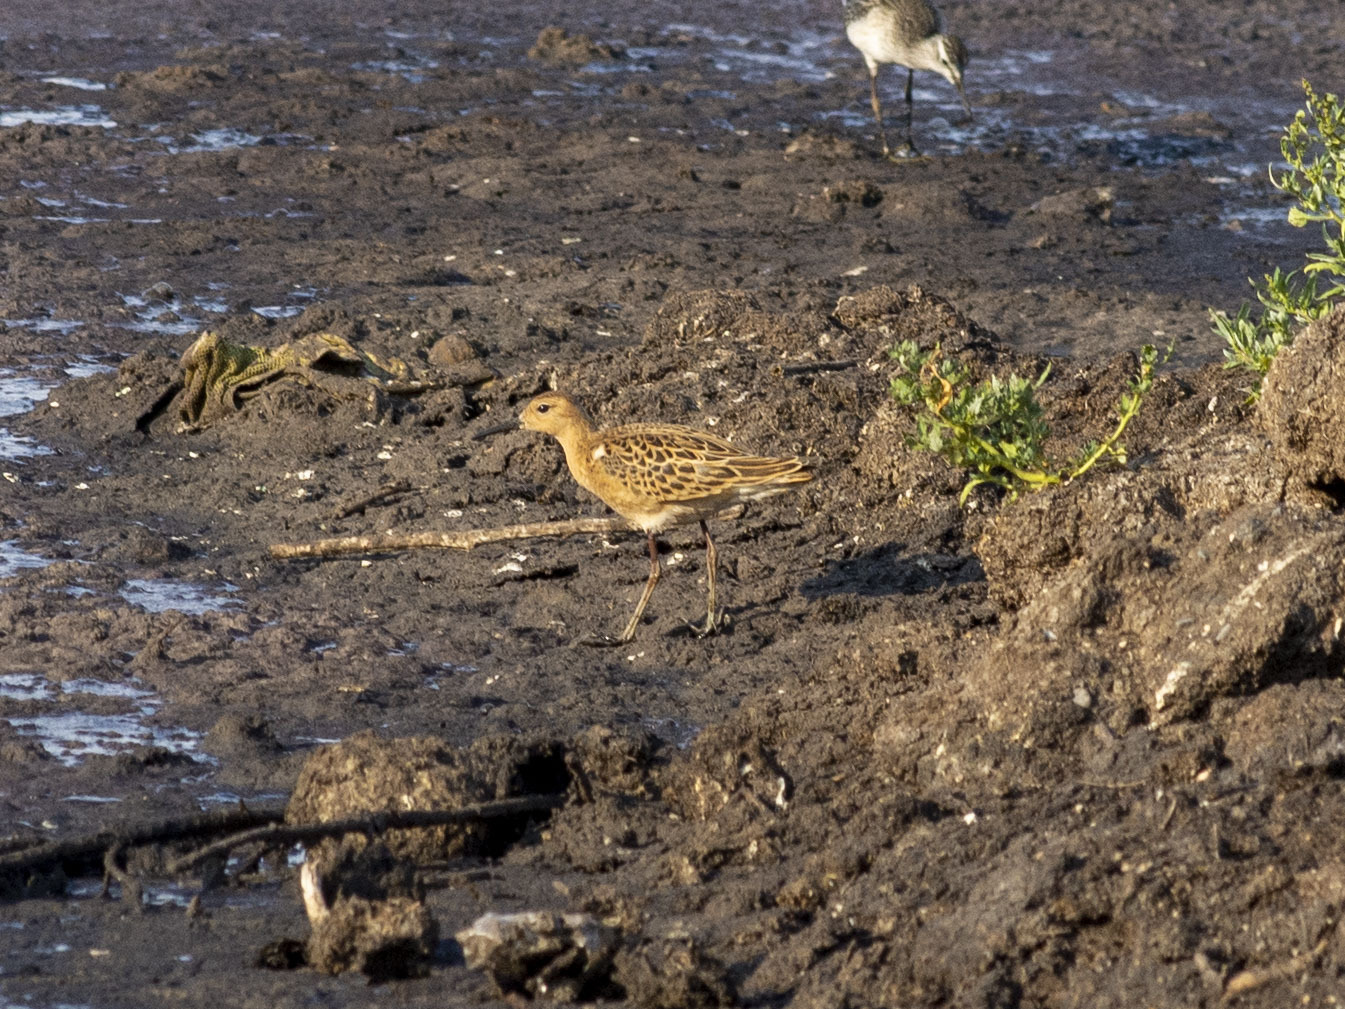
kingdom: Animalia
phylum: Chordata
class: Aves
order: Charadriiformes
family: Scolopacidae
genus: Calidris
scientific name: Calidris pugnax
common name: Ruff
